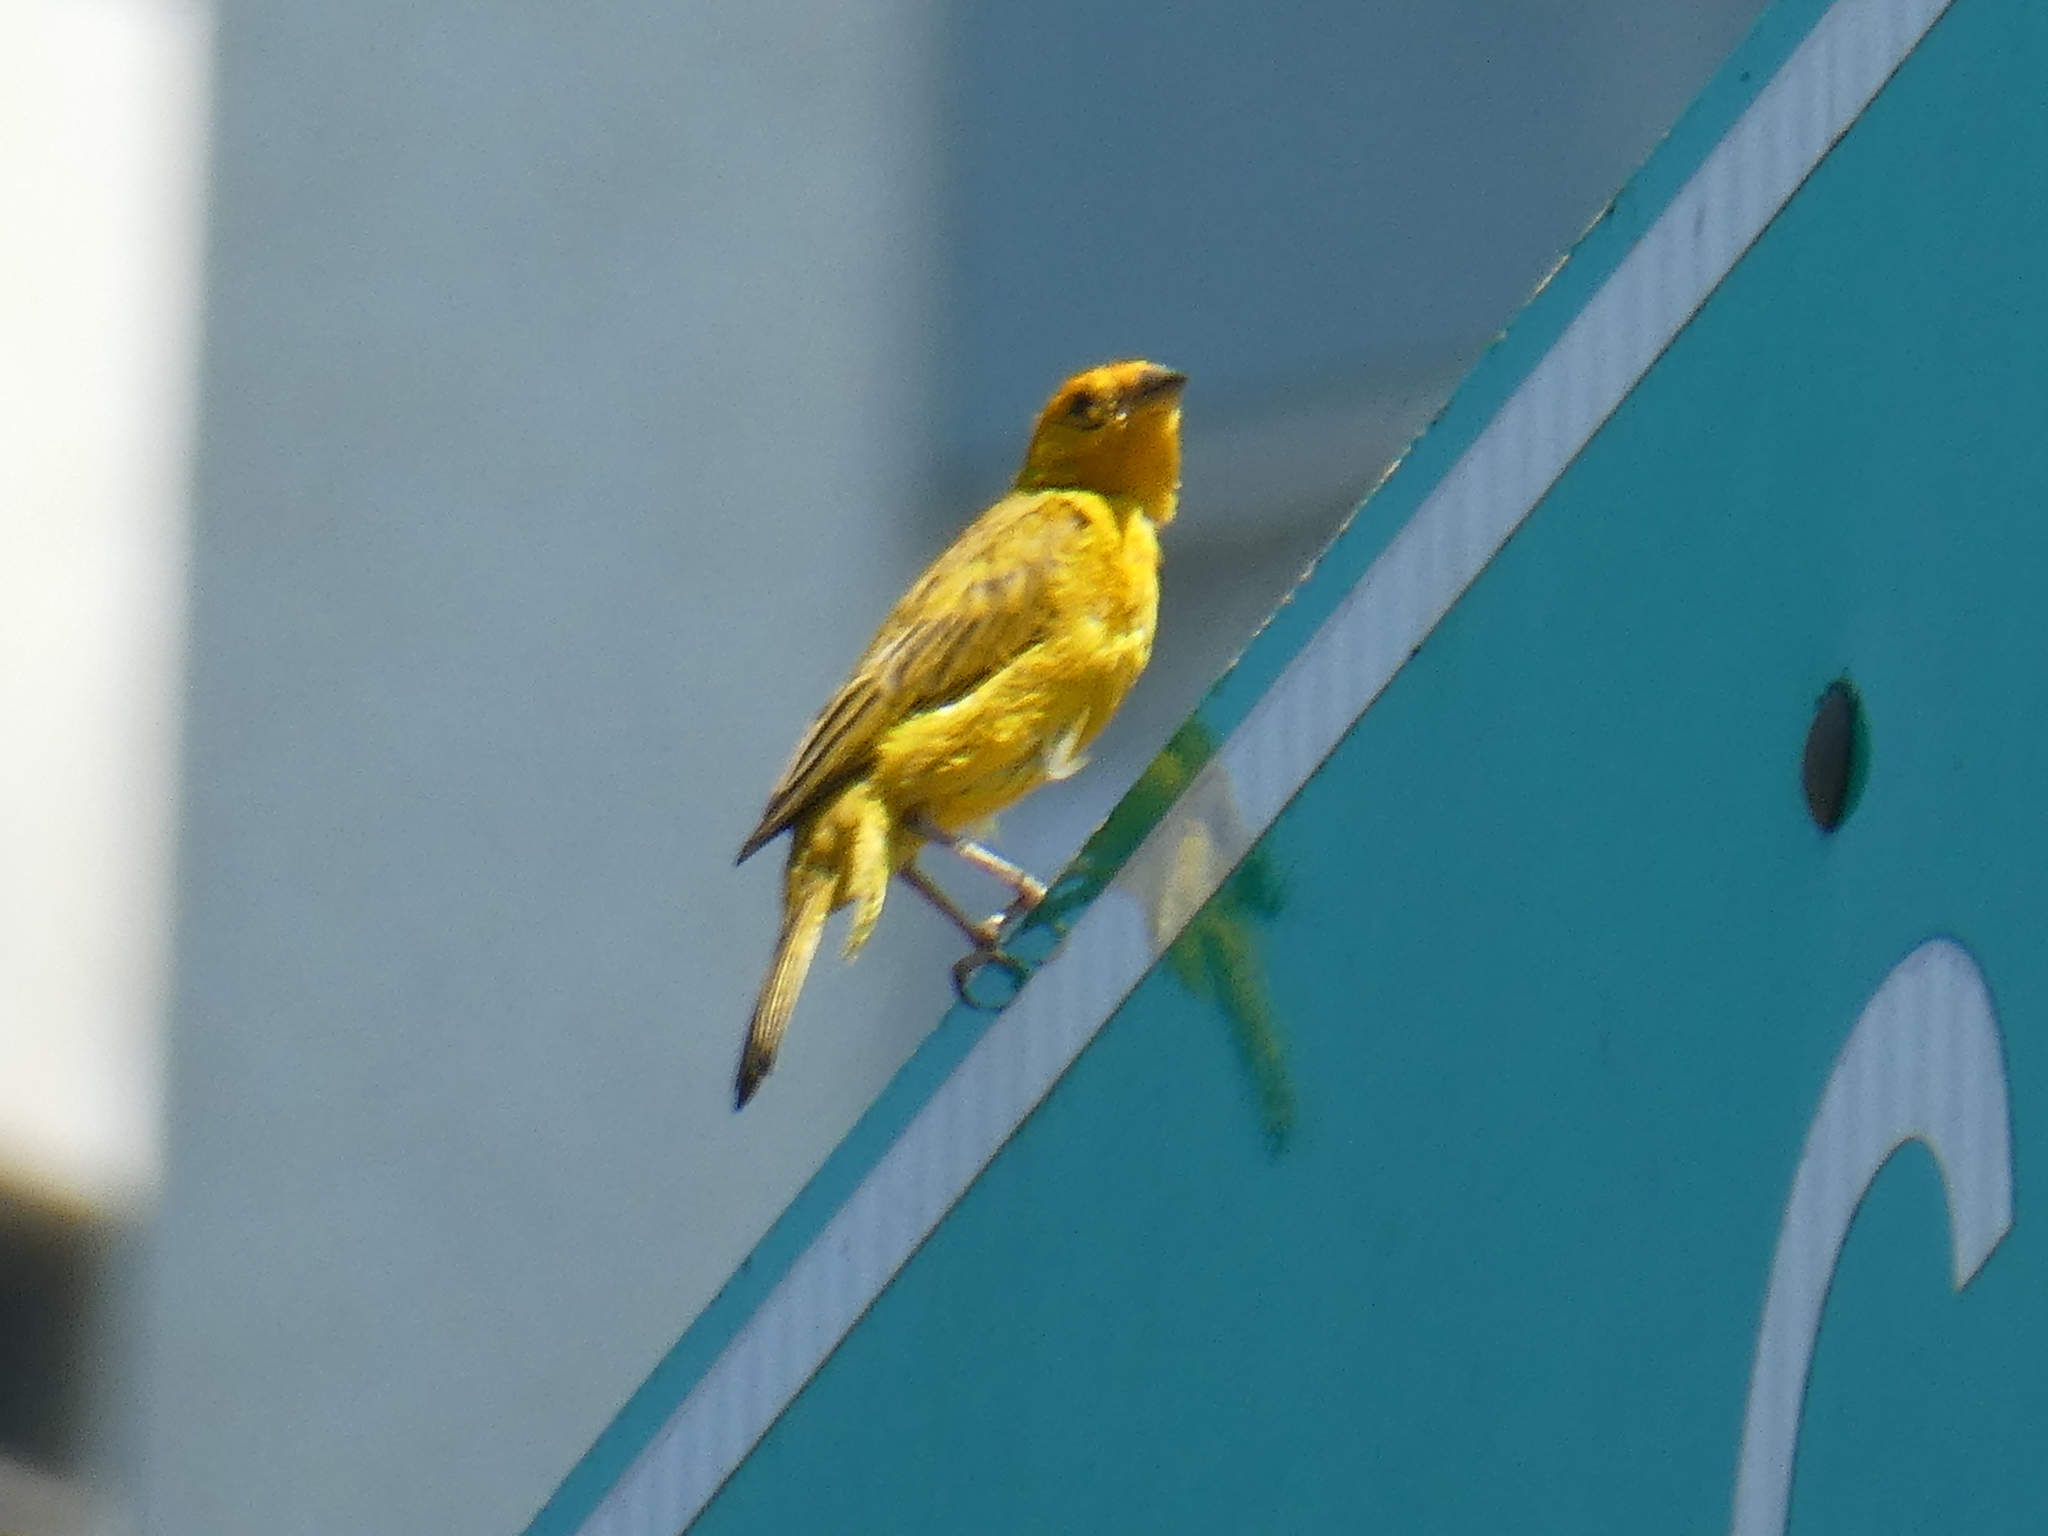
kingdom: Animalia
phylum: Chordata
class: Aves
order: Passeriformes
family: Thraupidae
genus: Sicalis
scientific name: Sicalis flaveola
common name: Saffron finch
